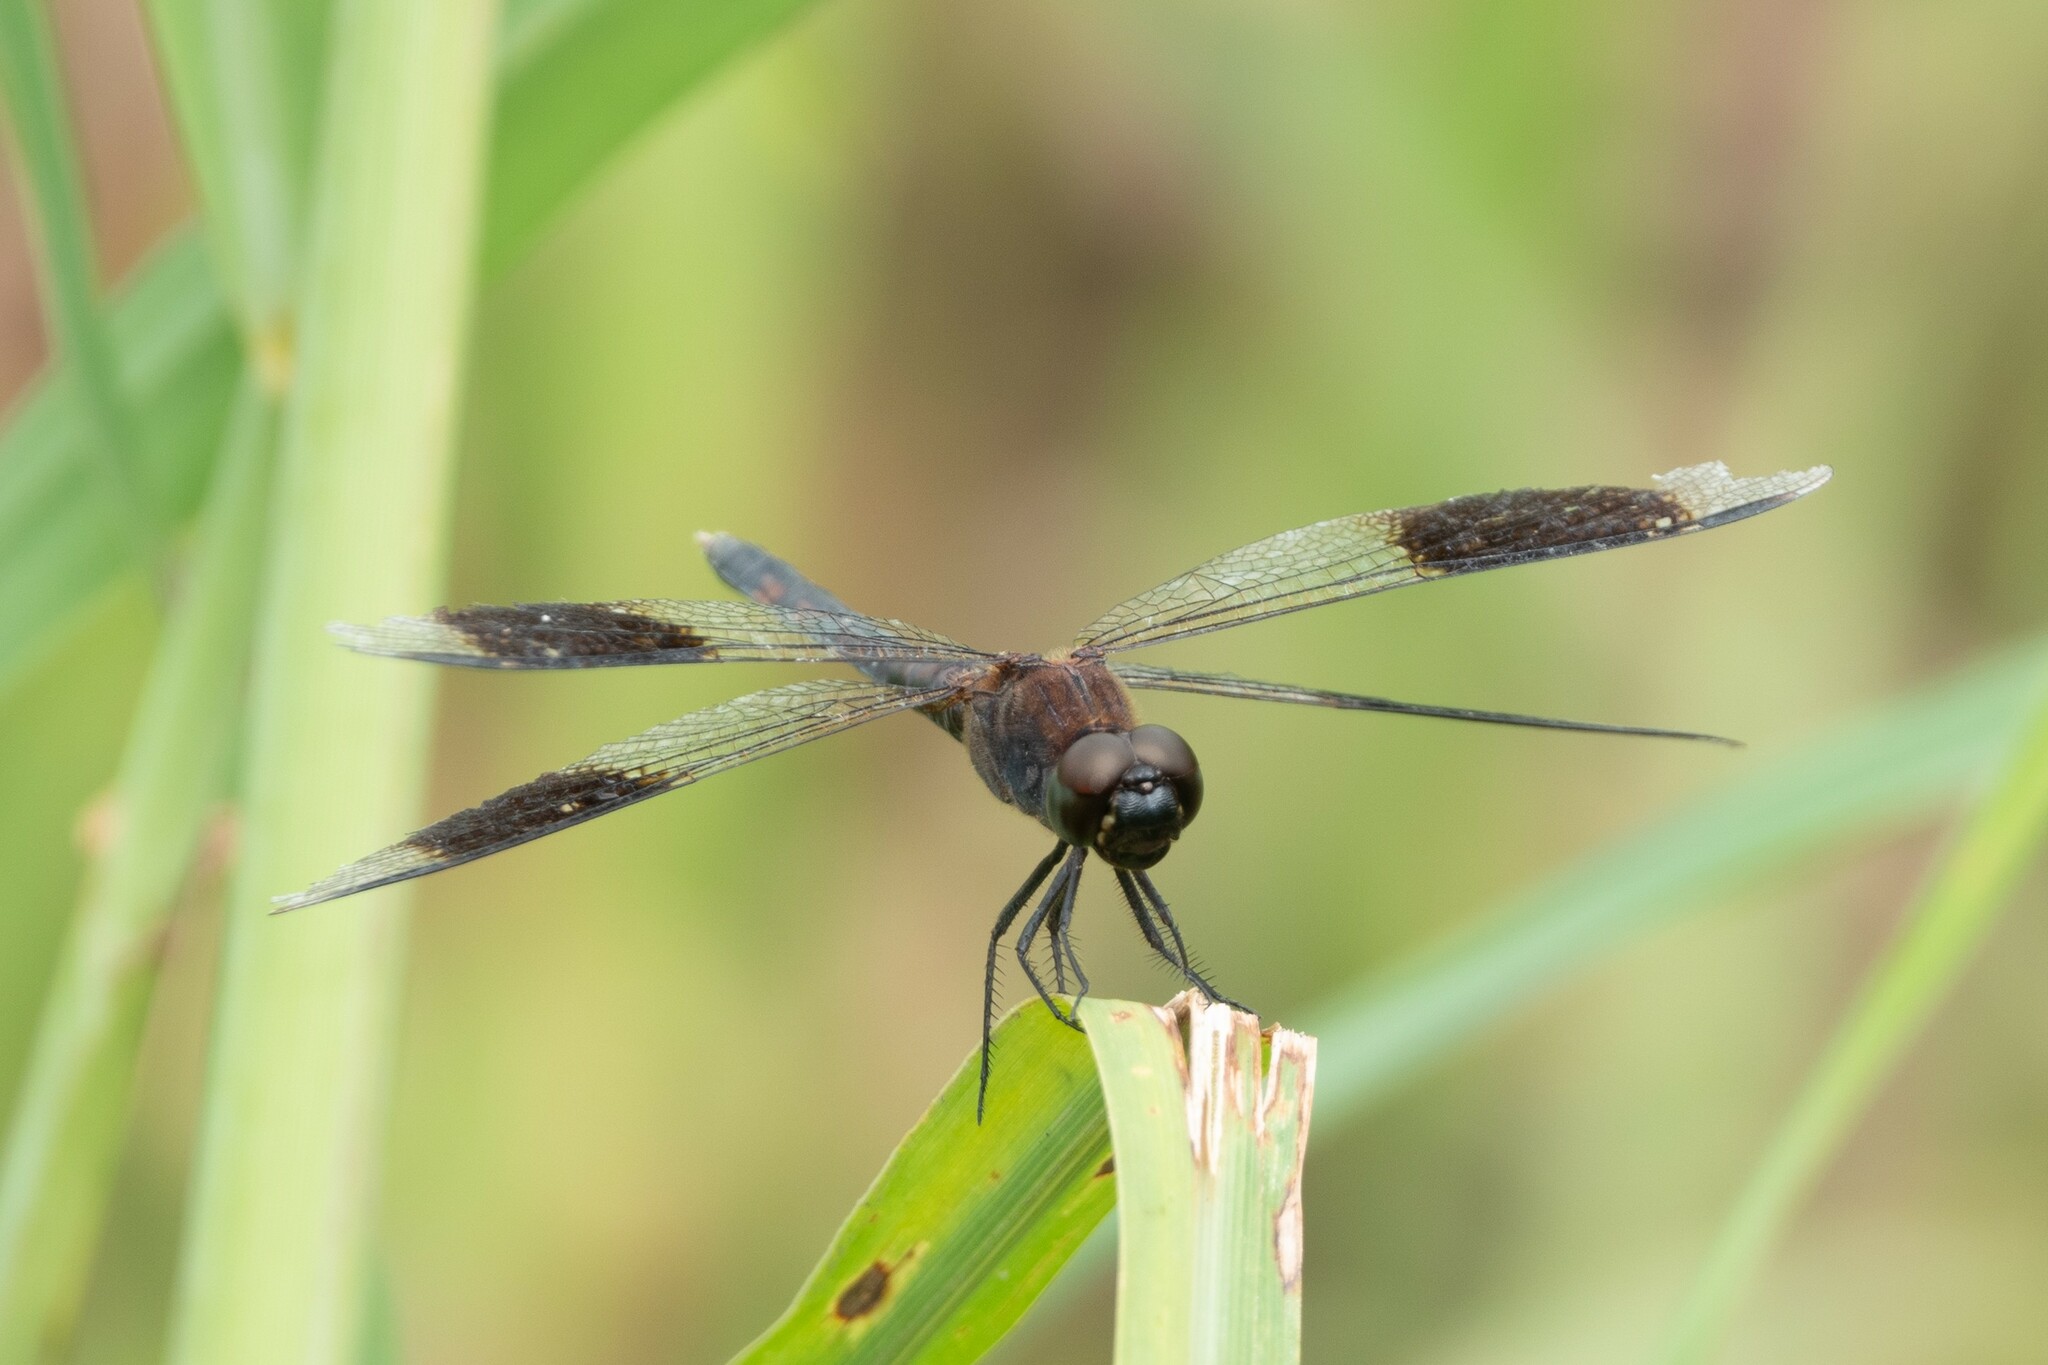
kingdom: Animalia
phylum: Arthropoda
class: Insecta
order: Odonata
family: Libellulidae
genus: Erythrodiplax
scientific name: Erythrodiplax umbrata
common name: Band-winged dragonlet
